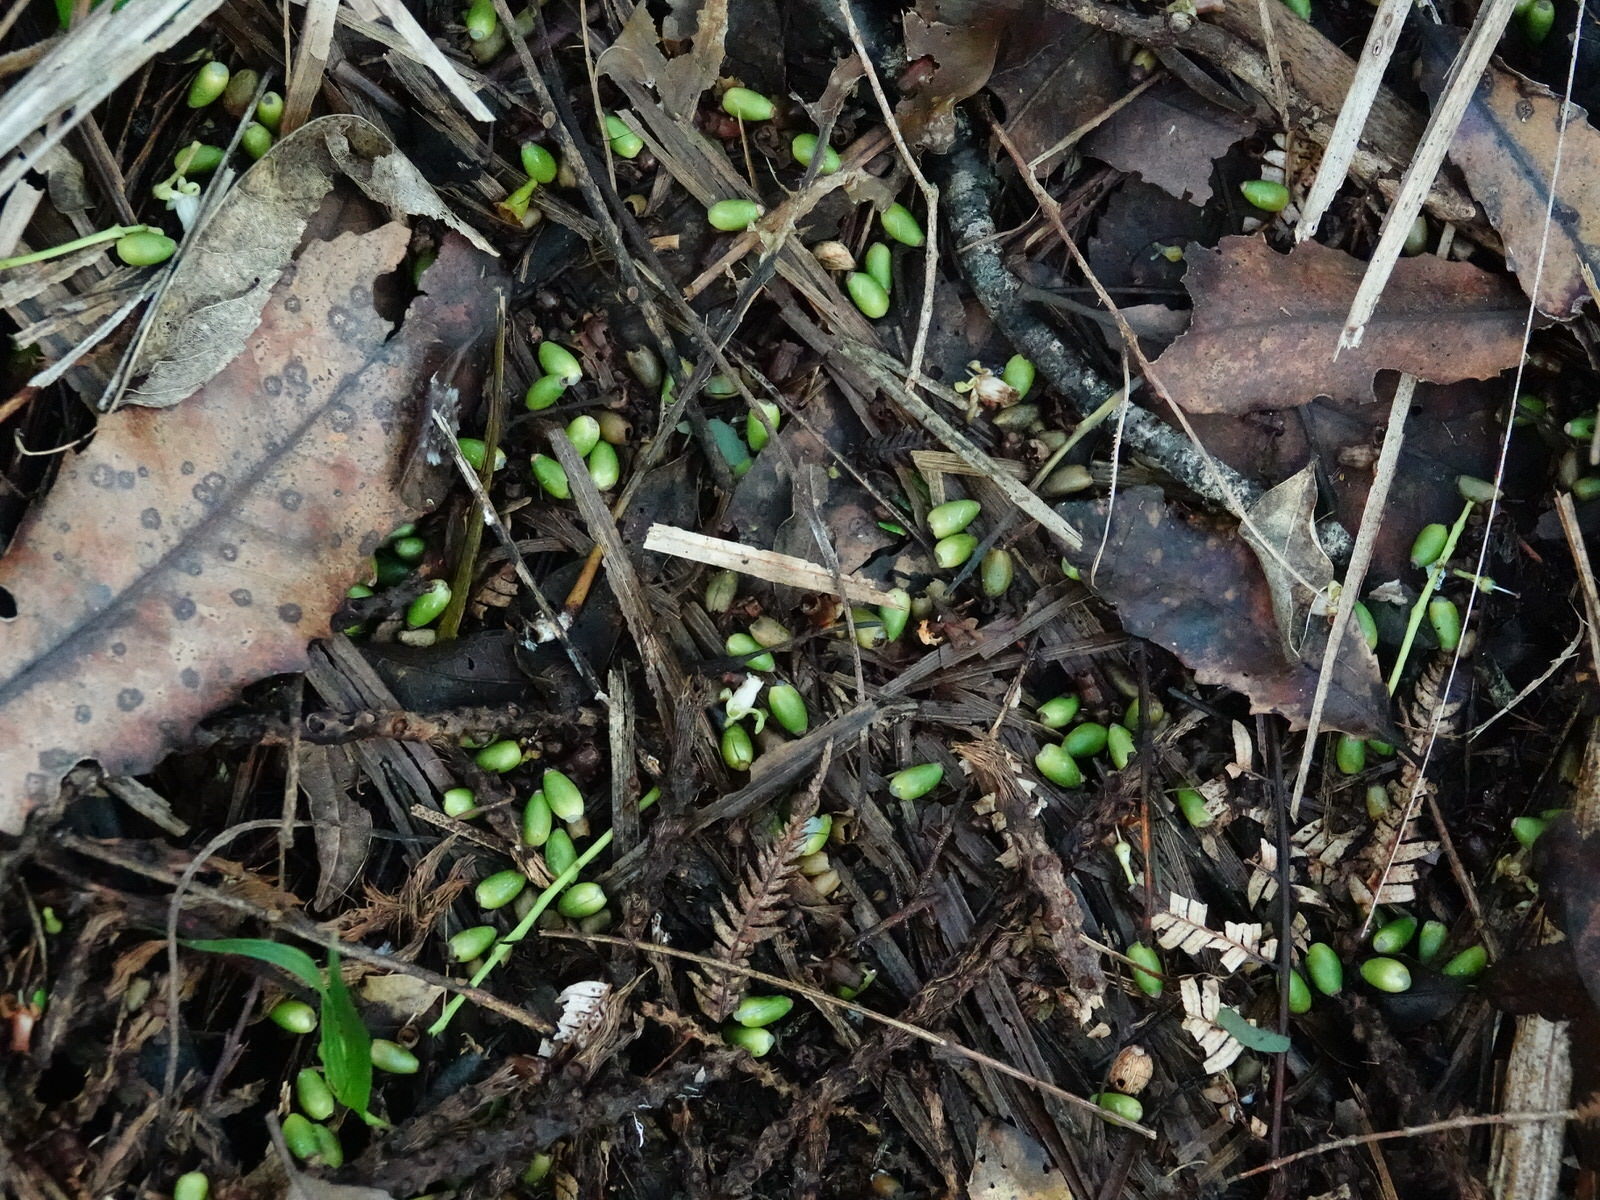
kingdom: Animalia
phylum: Chordata
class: Aves
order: Psittaciformes
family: Psittacidae
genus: Nestor
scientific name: Nestor meridionalis
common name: New zealand kaka
